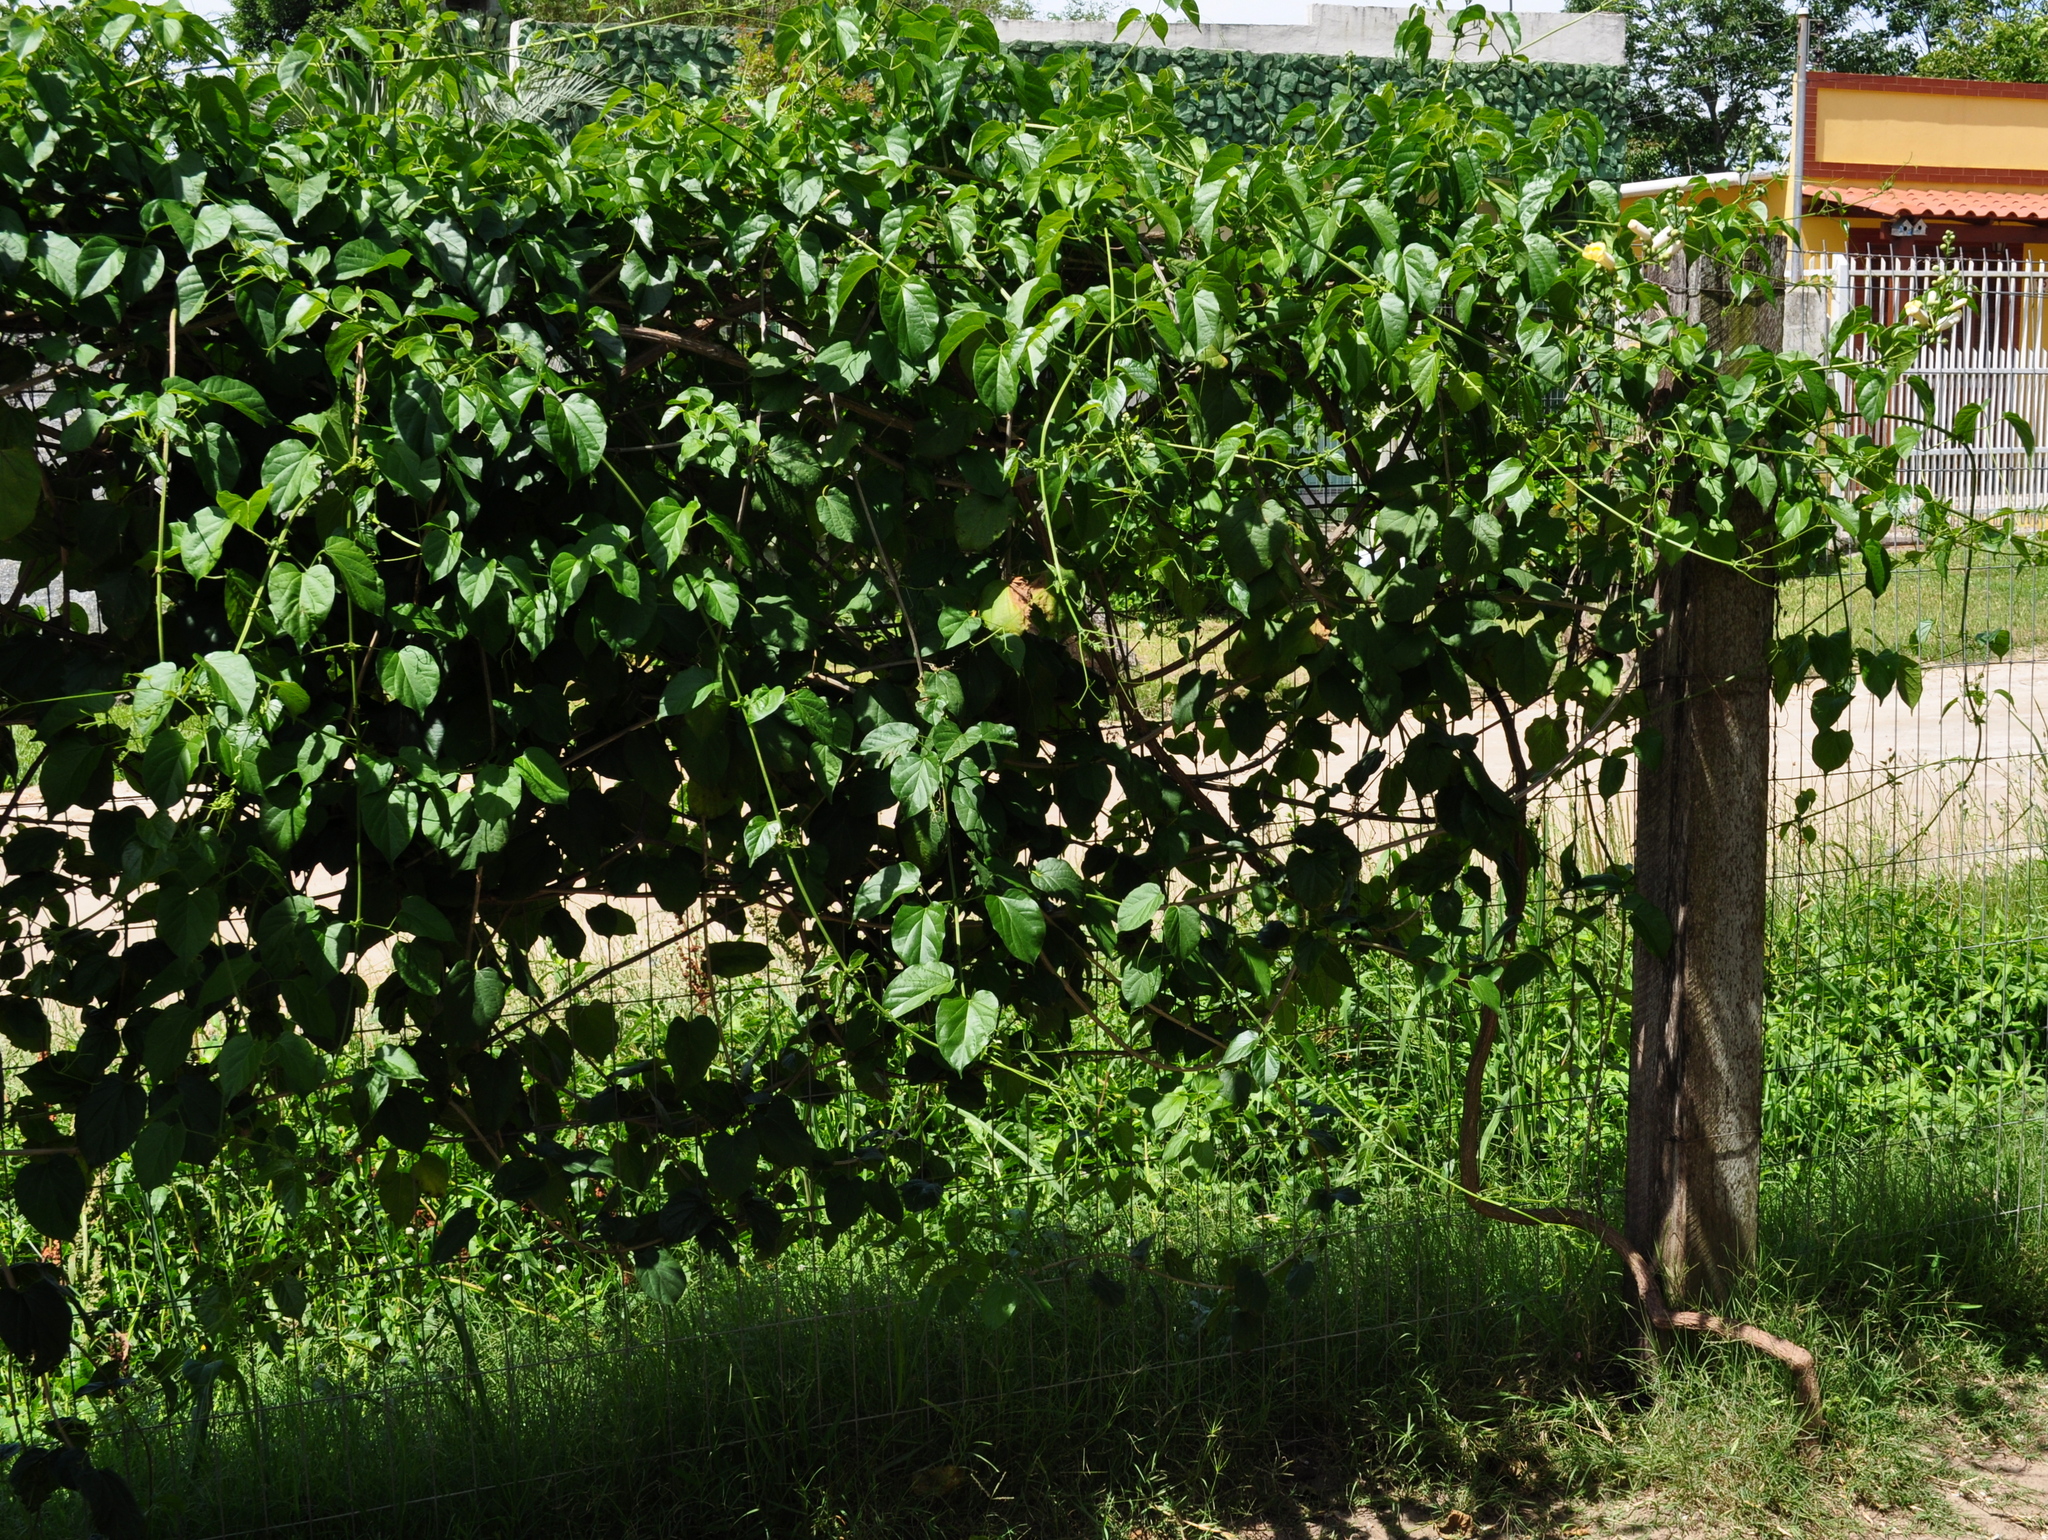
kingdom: Plantae
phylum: Tracheophyta
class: Magnoliopsida
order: Lamiales
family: Bignoniaceae
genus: Amphilophium
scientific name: Amphilophium crucigerum
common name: Monkey comb
